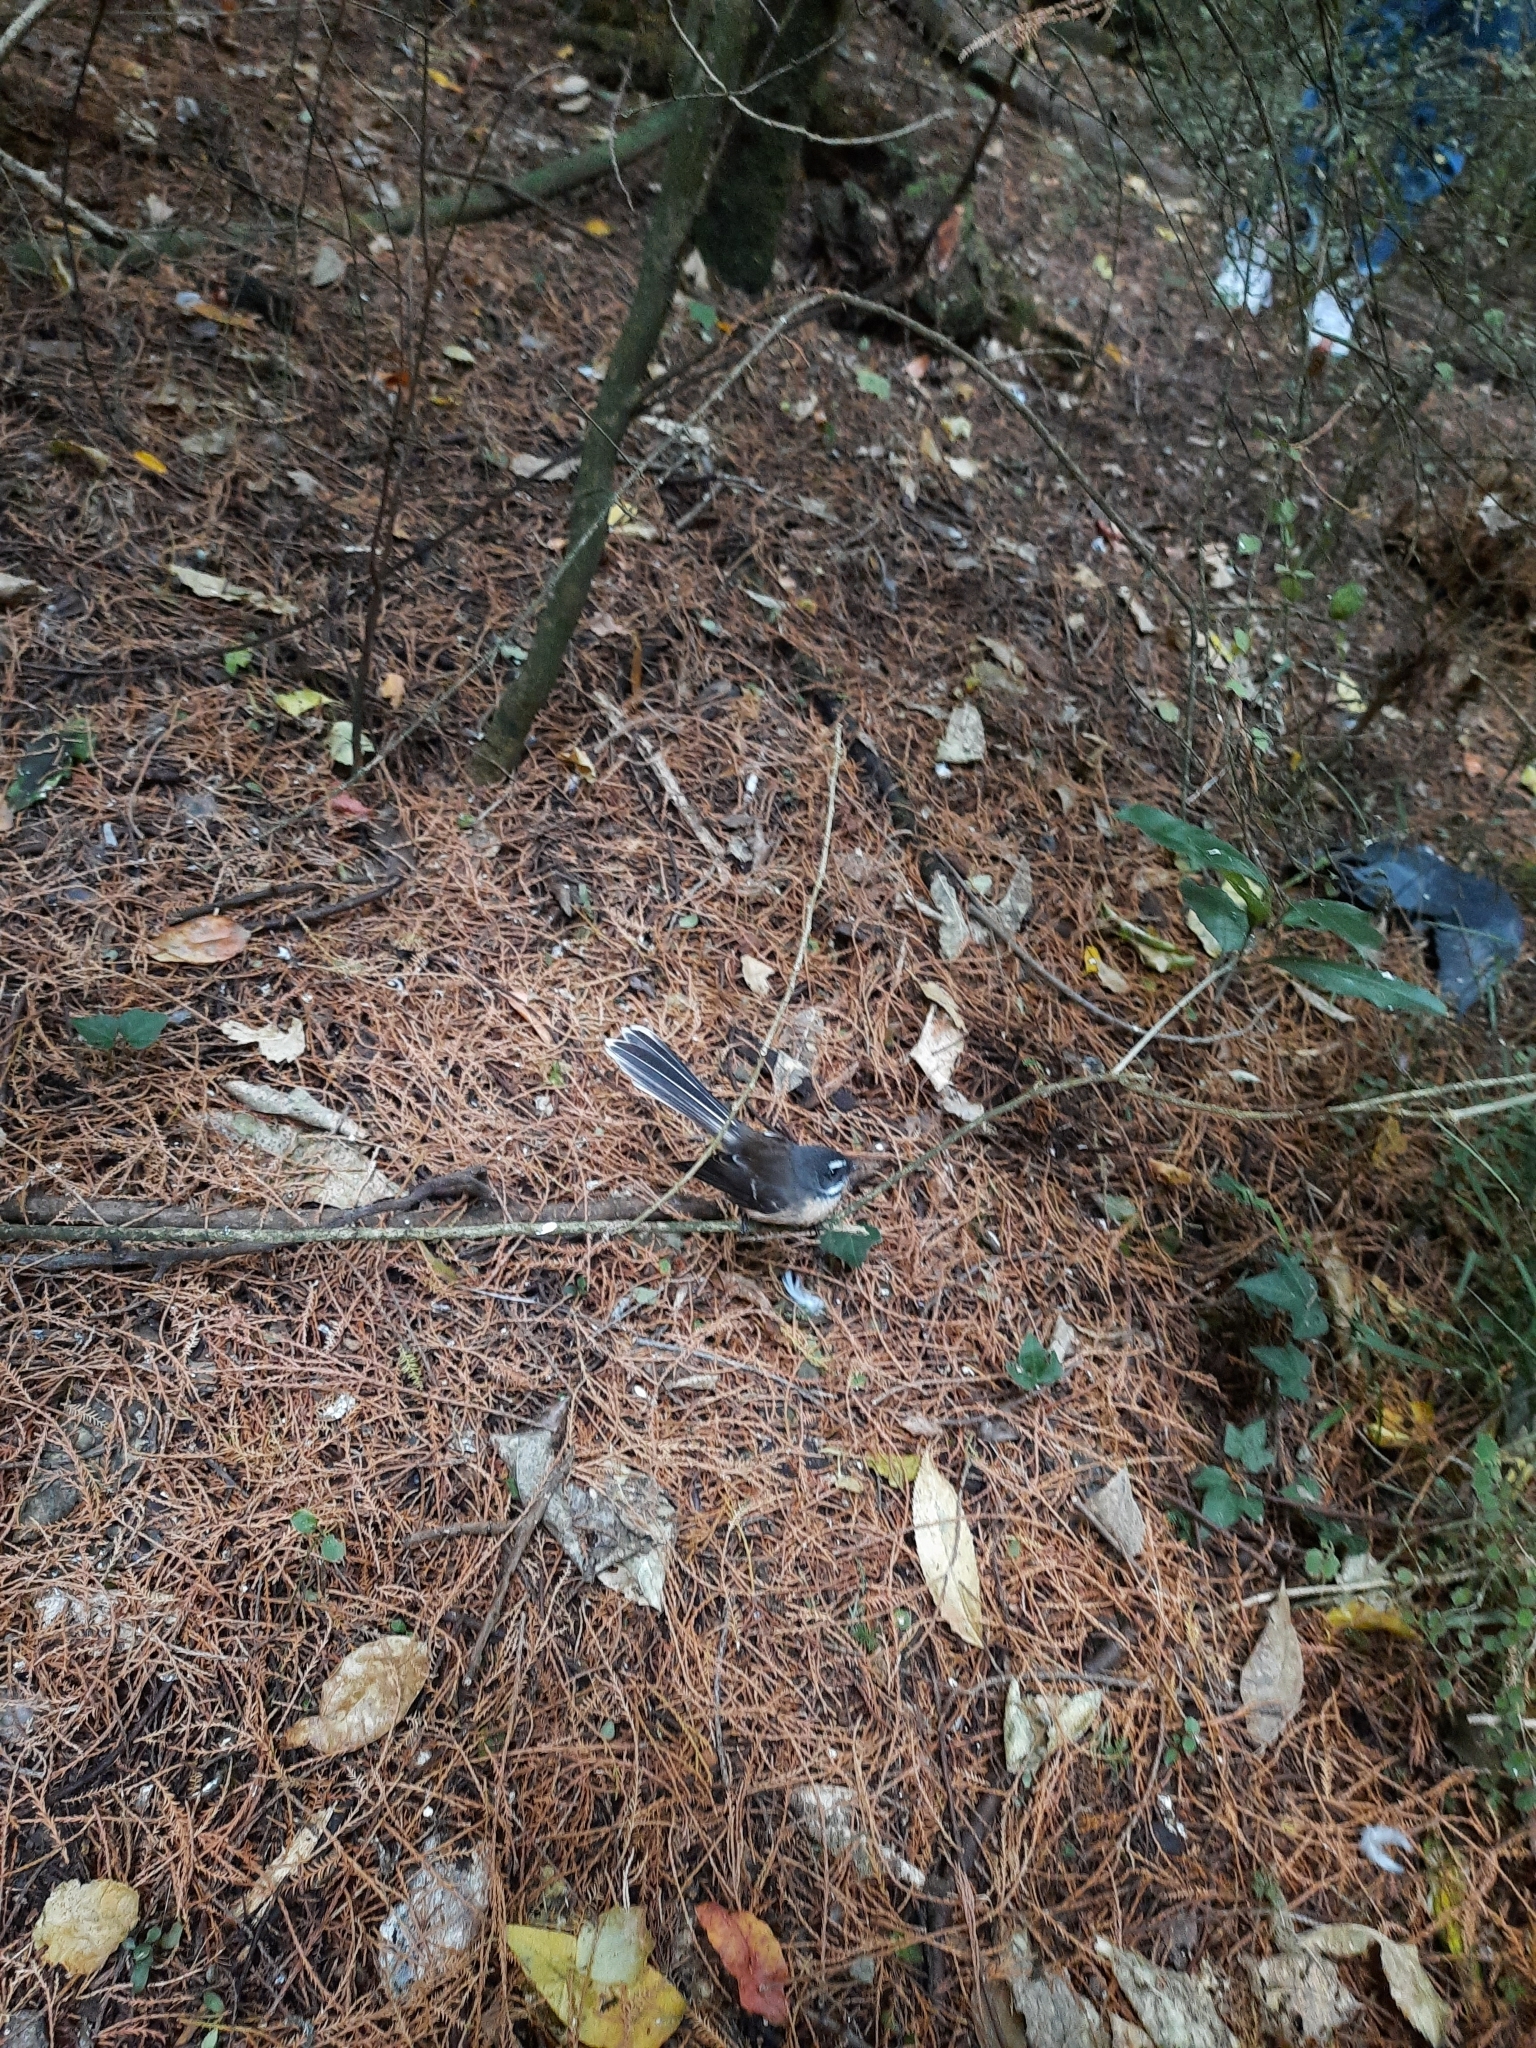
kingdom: Animalia
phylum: Chordata
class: Aves
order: Passeriformes
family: Rhipiduridae
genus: Rhipidura
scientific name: Rhipidura fuliginosa
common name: New zealand fantail
